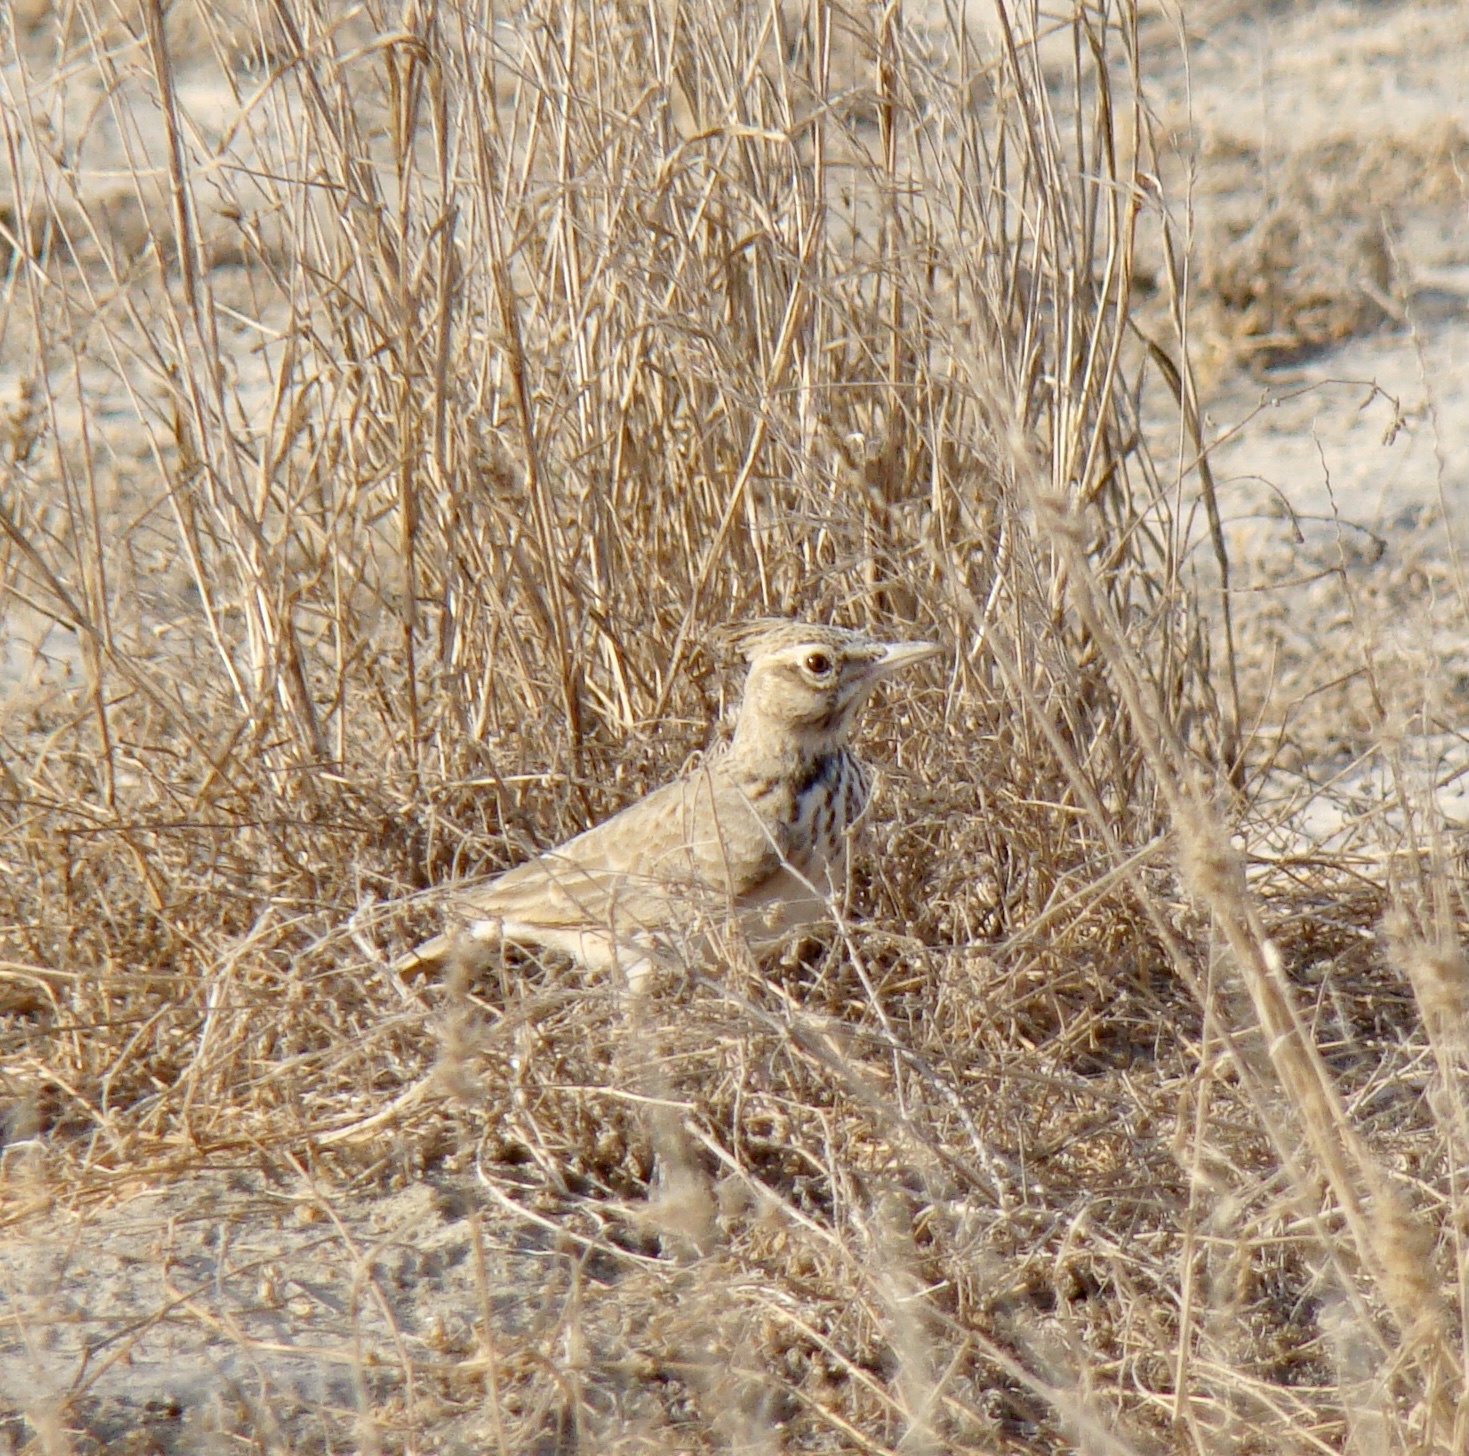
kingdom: Animalia
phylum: Chordata
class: Aves
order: Passeriformes
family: Alaudidae
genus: Galerida
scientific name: Galerida cristata
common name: Crested lark
